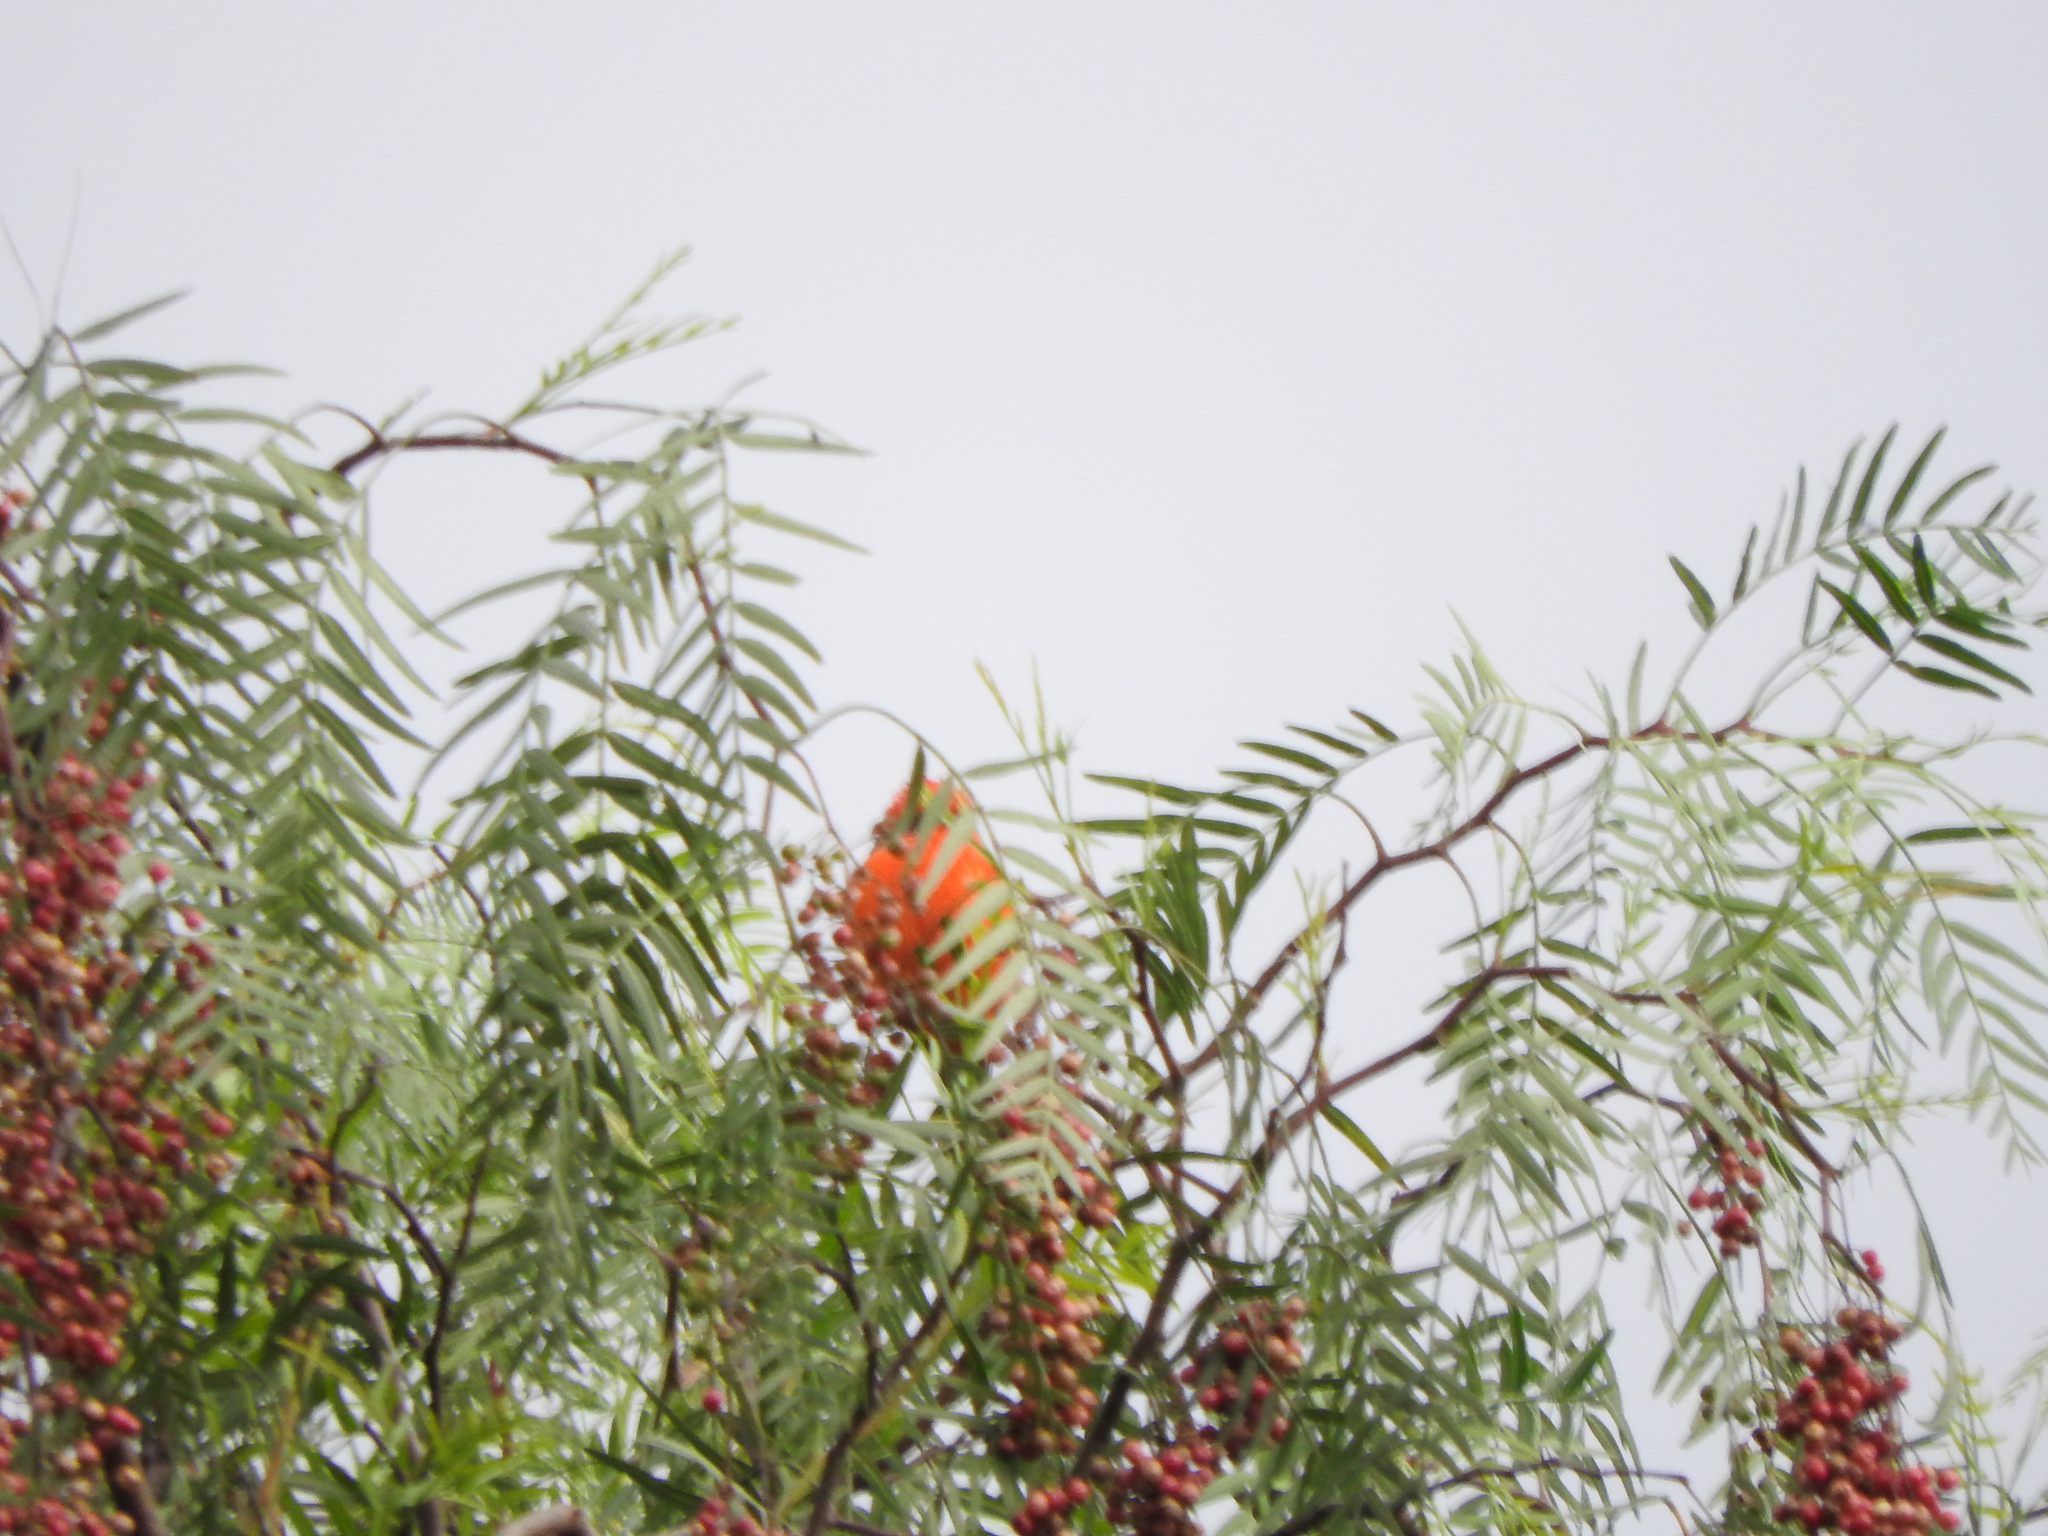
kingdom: Animalia
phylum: Chordata
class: Aves
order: Passeriformes
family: Tyrannidae
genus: Pyrocephalus
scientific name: Pyrocephalus rubinus
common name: Vermilion flycatcher
